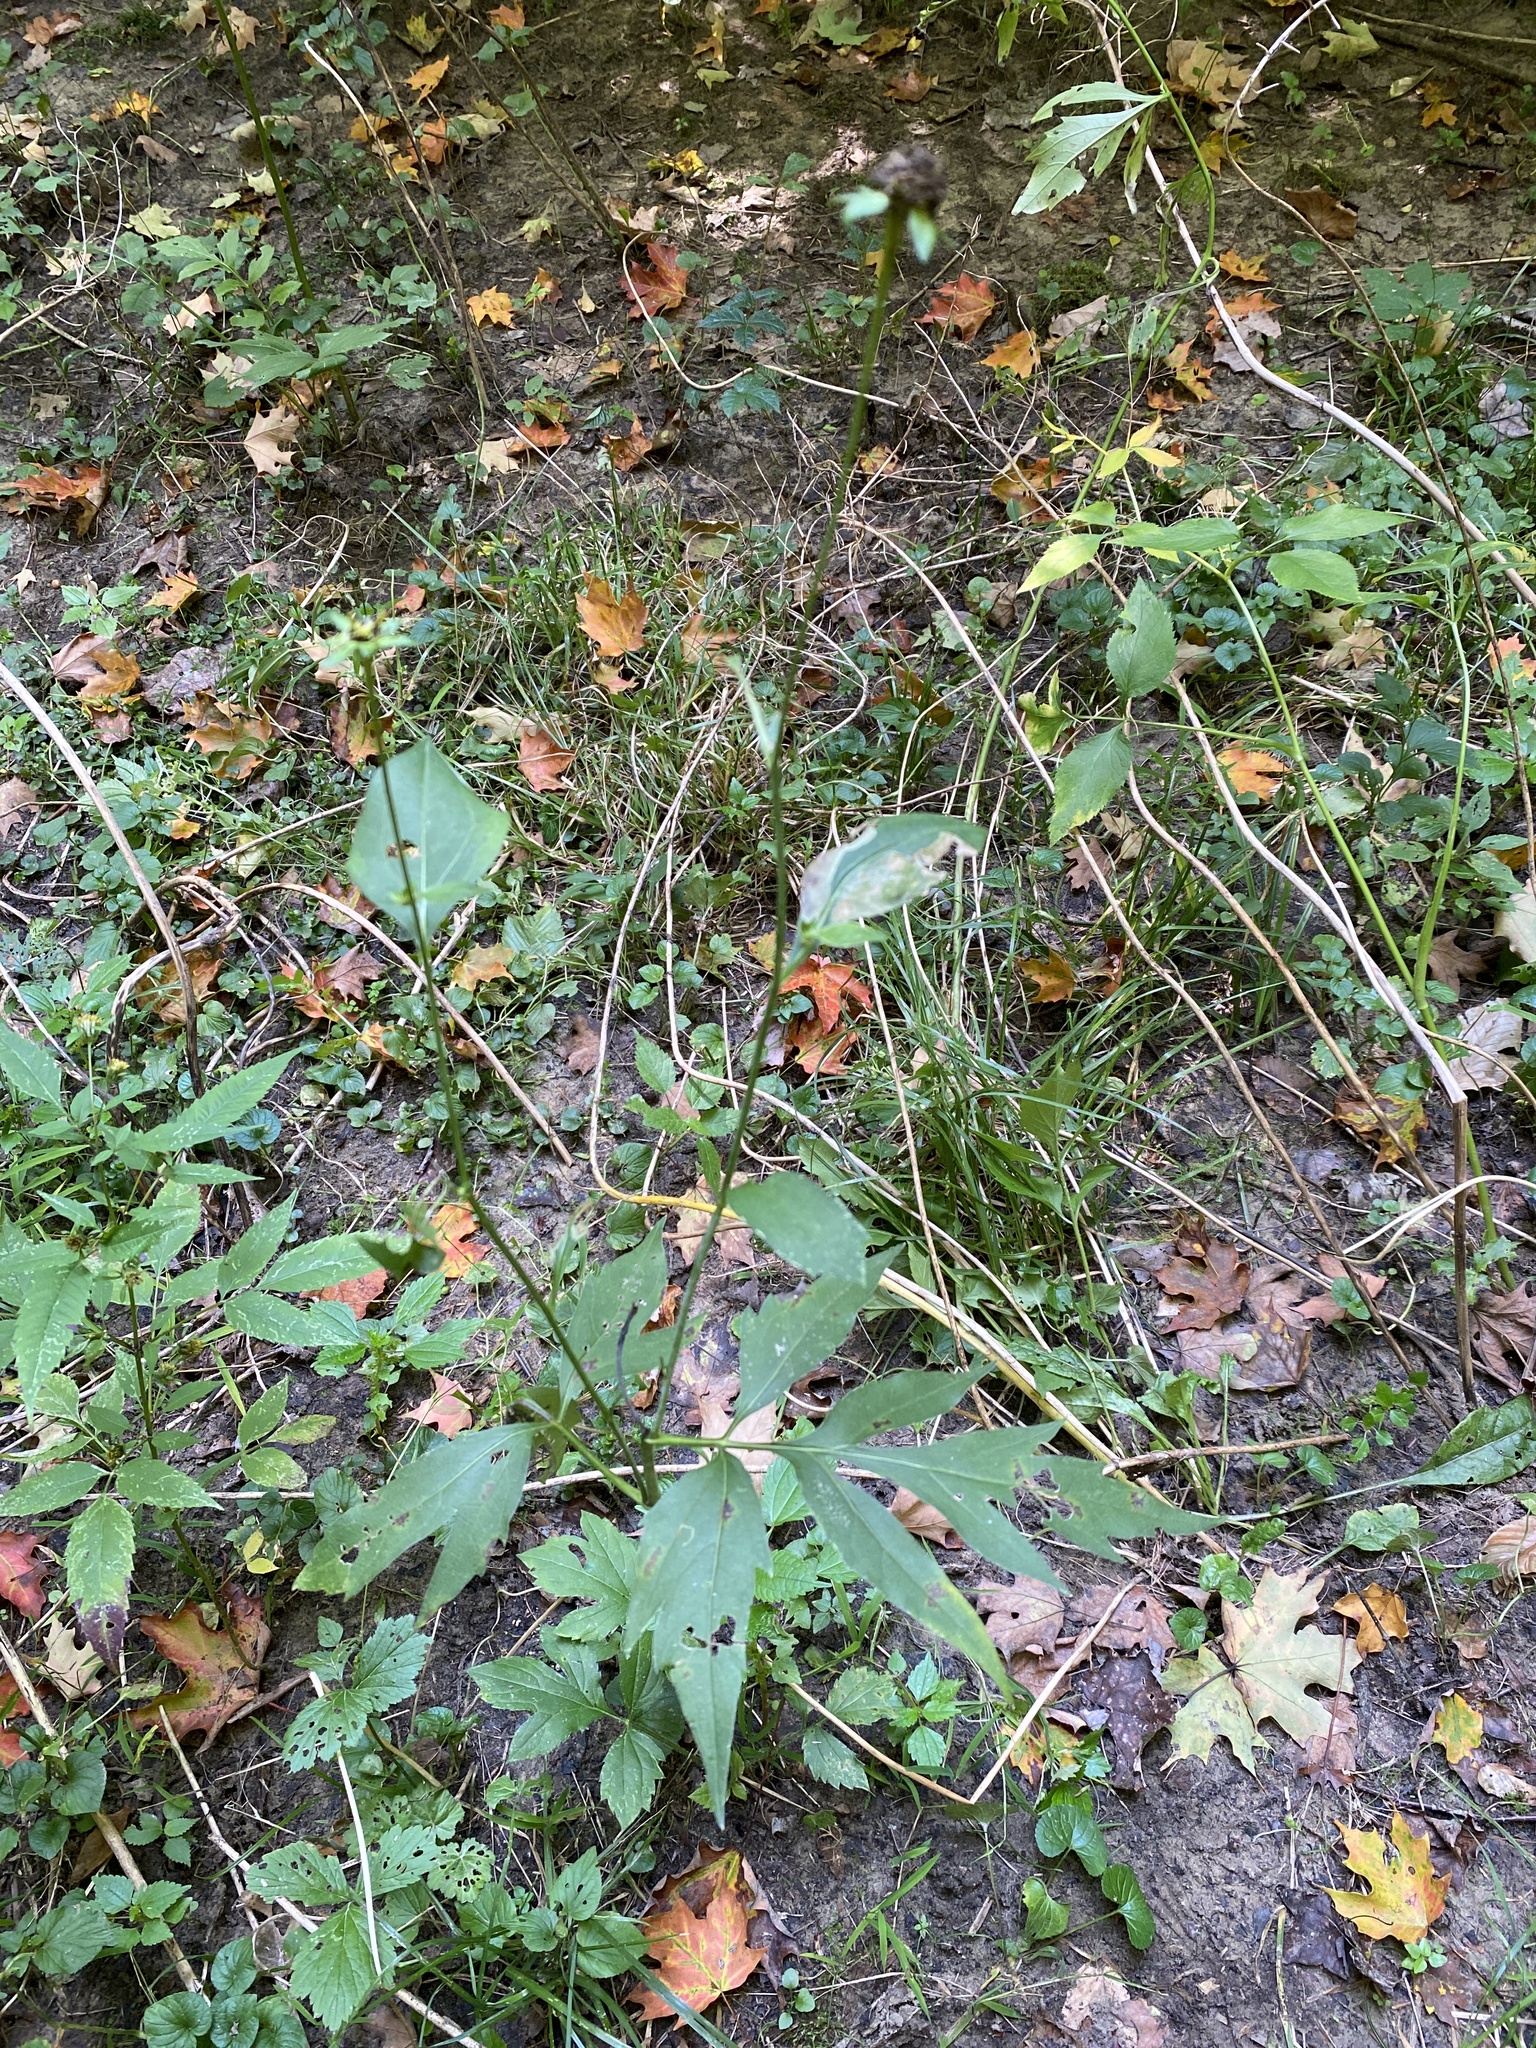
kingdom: Plantae
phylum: Tracheophyta
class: Magnoliopsida
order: Asterales
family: Asteraceae
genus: Rudbeckia
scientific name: Rudbeckia laciniata
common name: Coneflower
